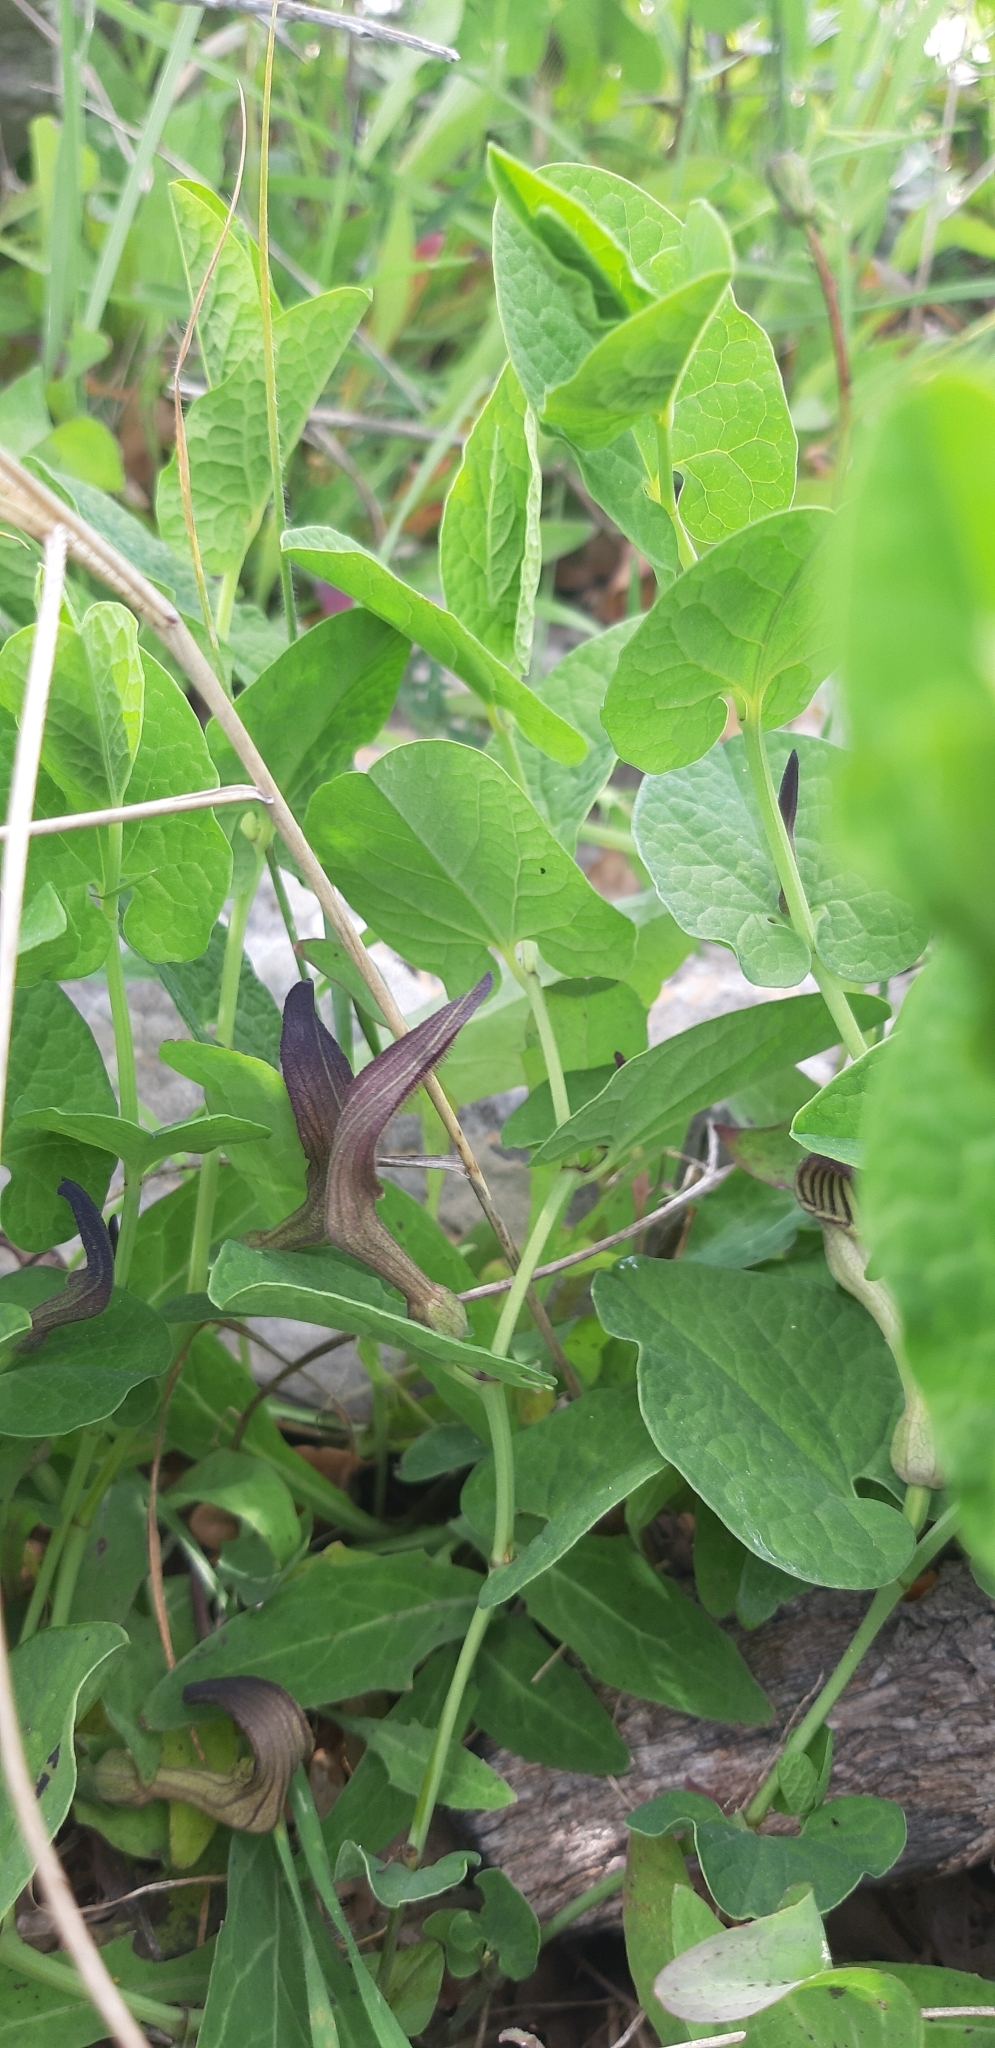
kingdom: Plantae
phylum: Tracheophyta
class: Magnoliopsida
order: Piperales
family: Aristolochiaceae
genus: Aristolochia
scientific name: Aristolochia clusii
